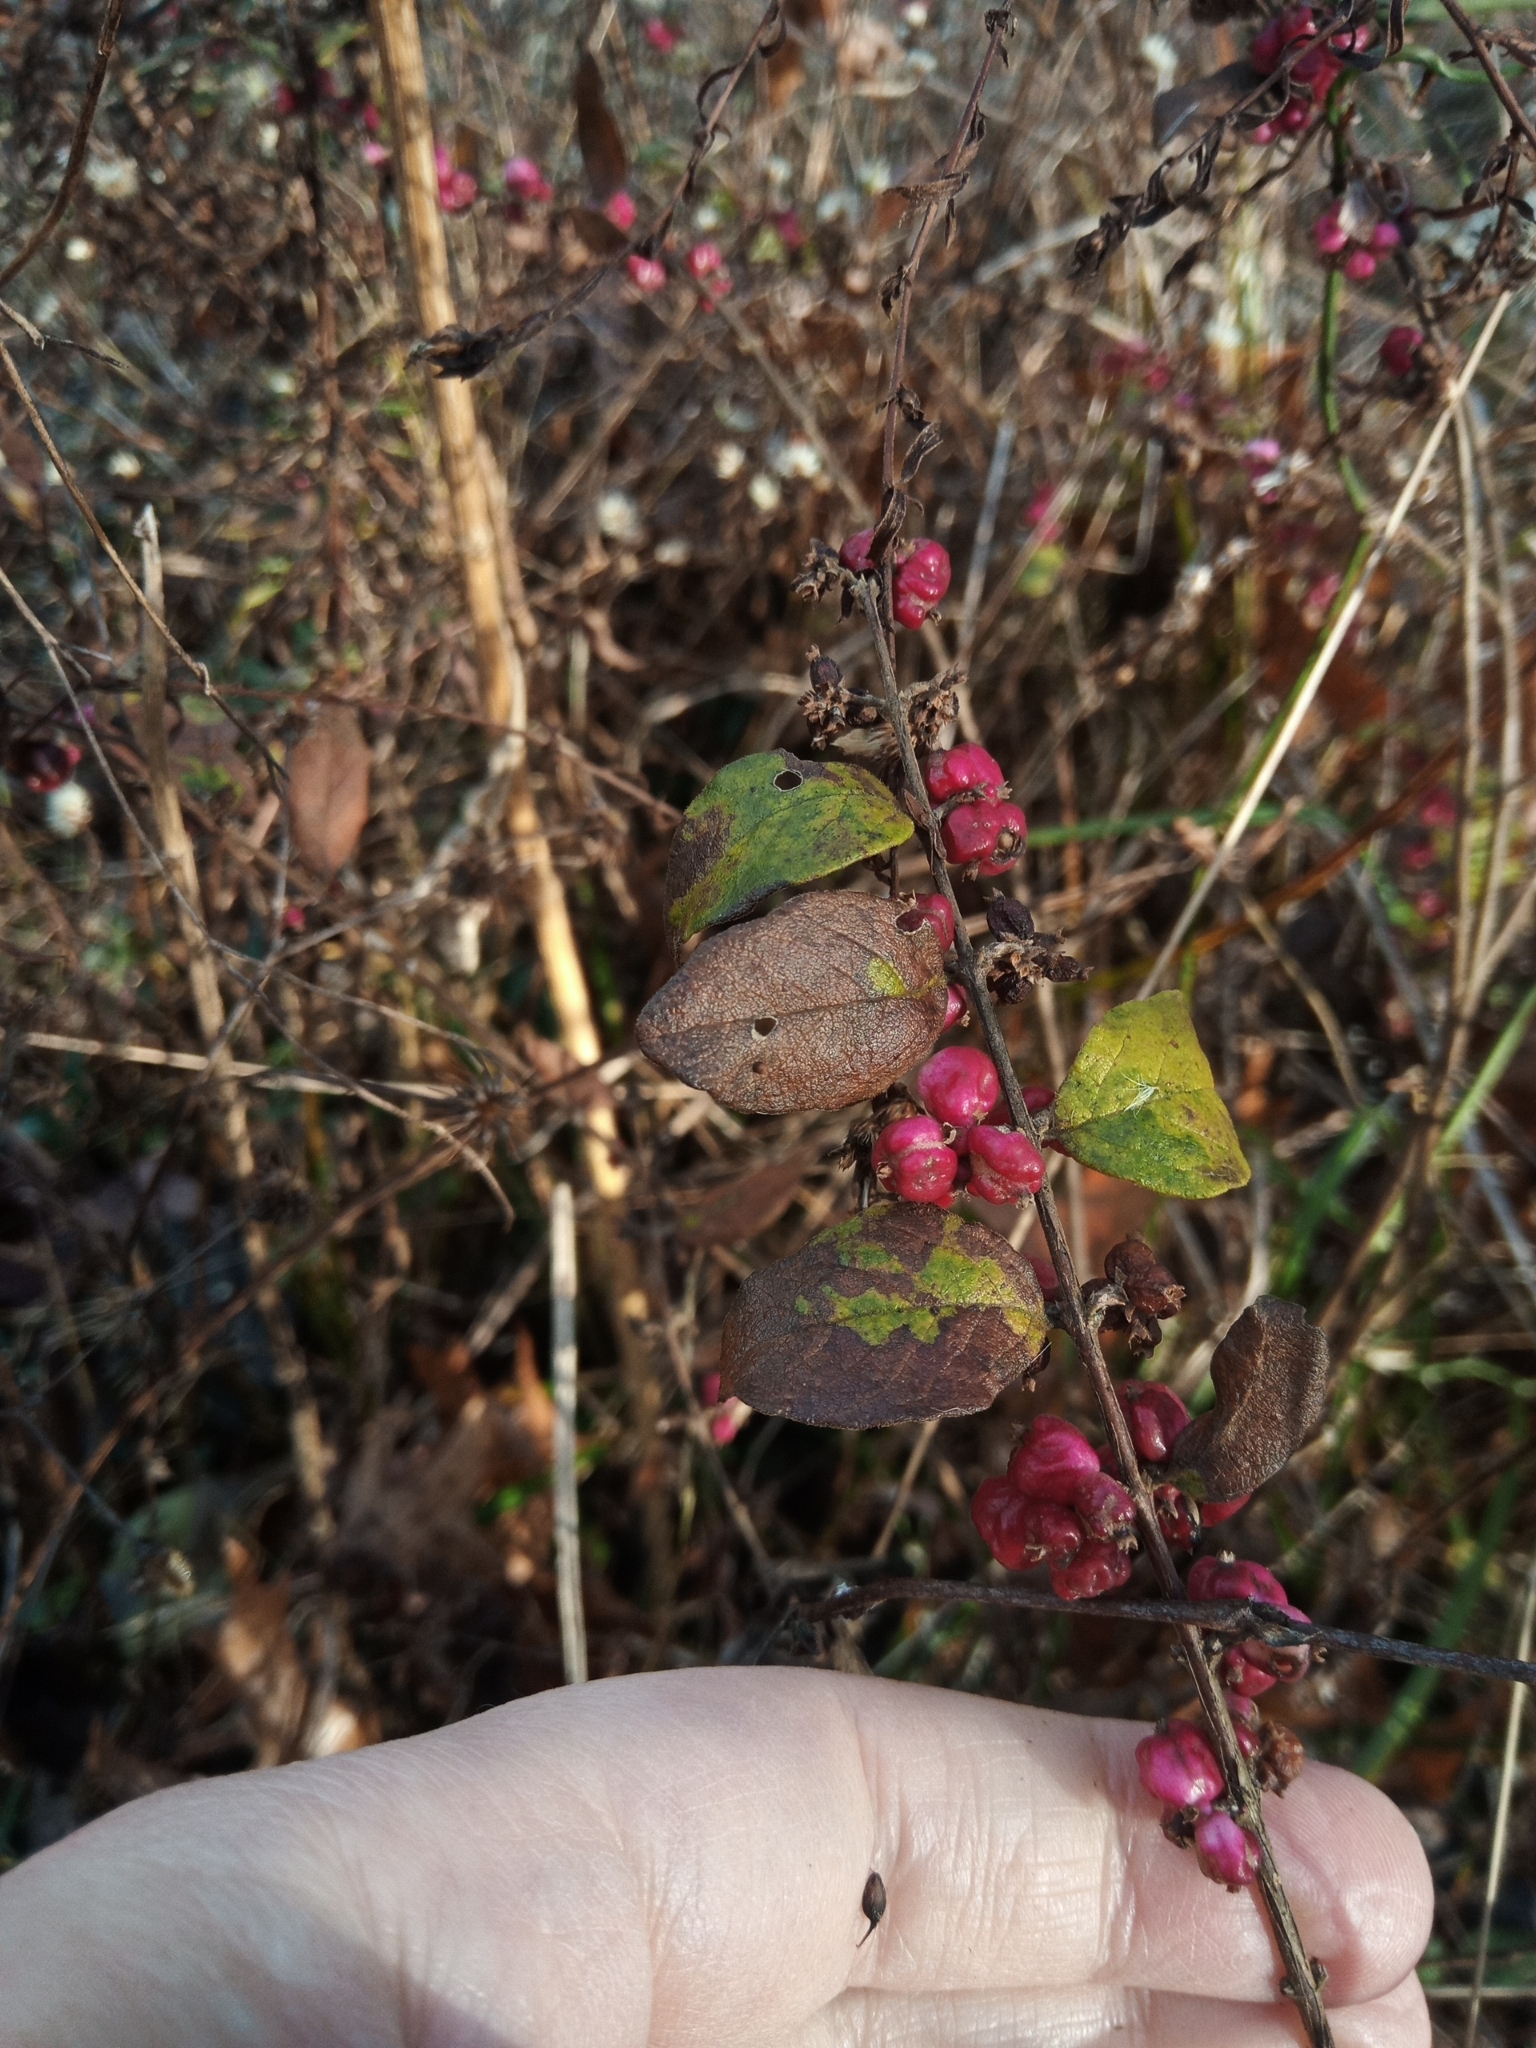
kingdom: Plantae
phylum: Tracheophyta
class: Magnoliopsida
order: Dipsacales
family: Caprifoliaceae
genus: Symphoricarpos
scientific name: Symphoricarpos orbiculatus
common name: Coralberry
